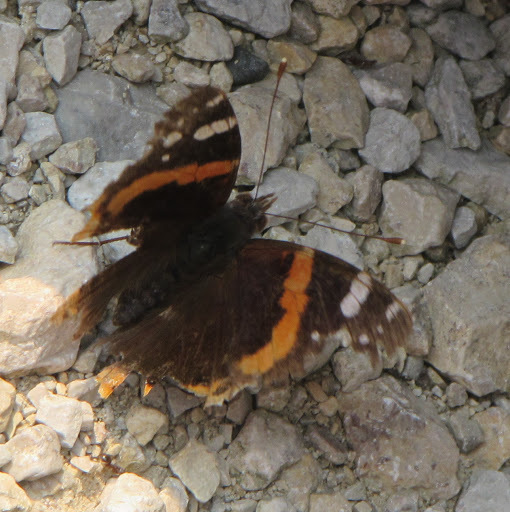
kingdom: Animalia
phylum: Arthropoda
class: Insecta
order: Lepidoptera
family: Nymphalidae
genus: Vanessa
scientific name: Vanessa atalanta
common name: Red admiral
